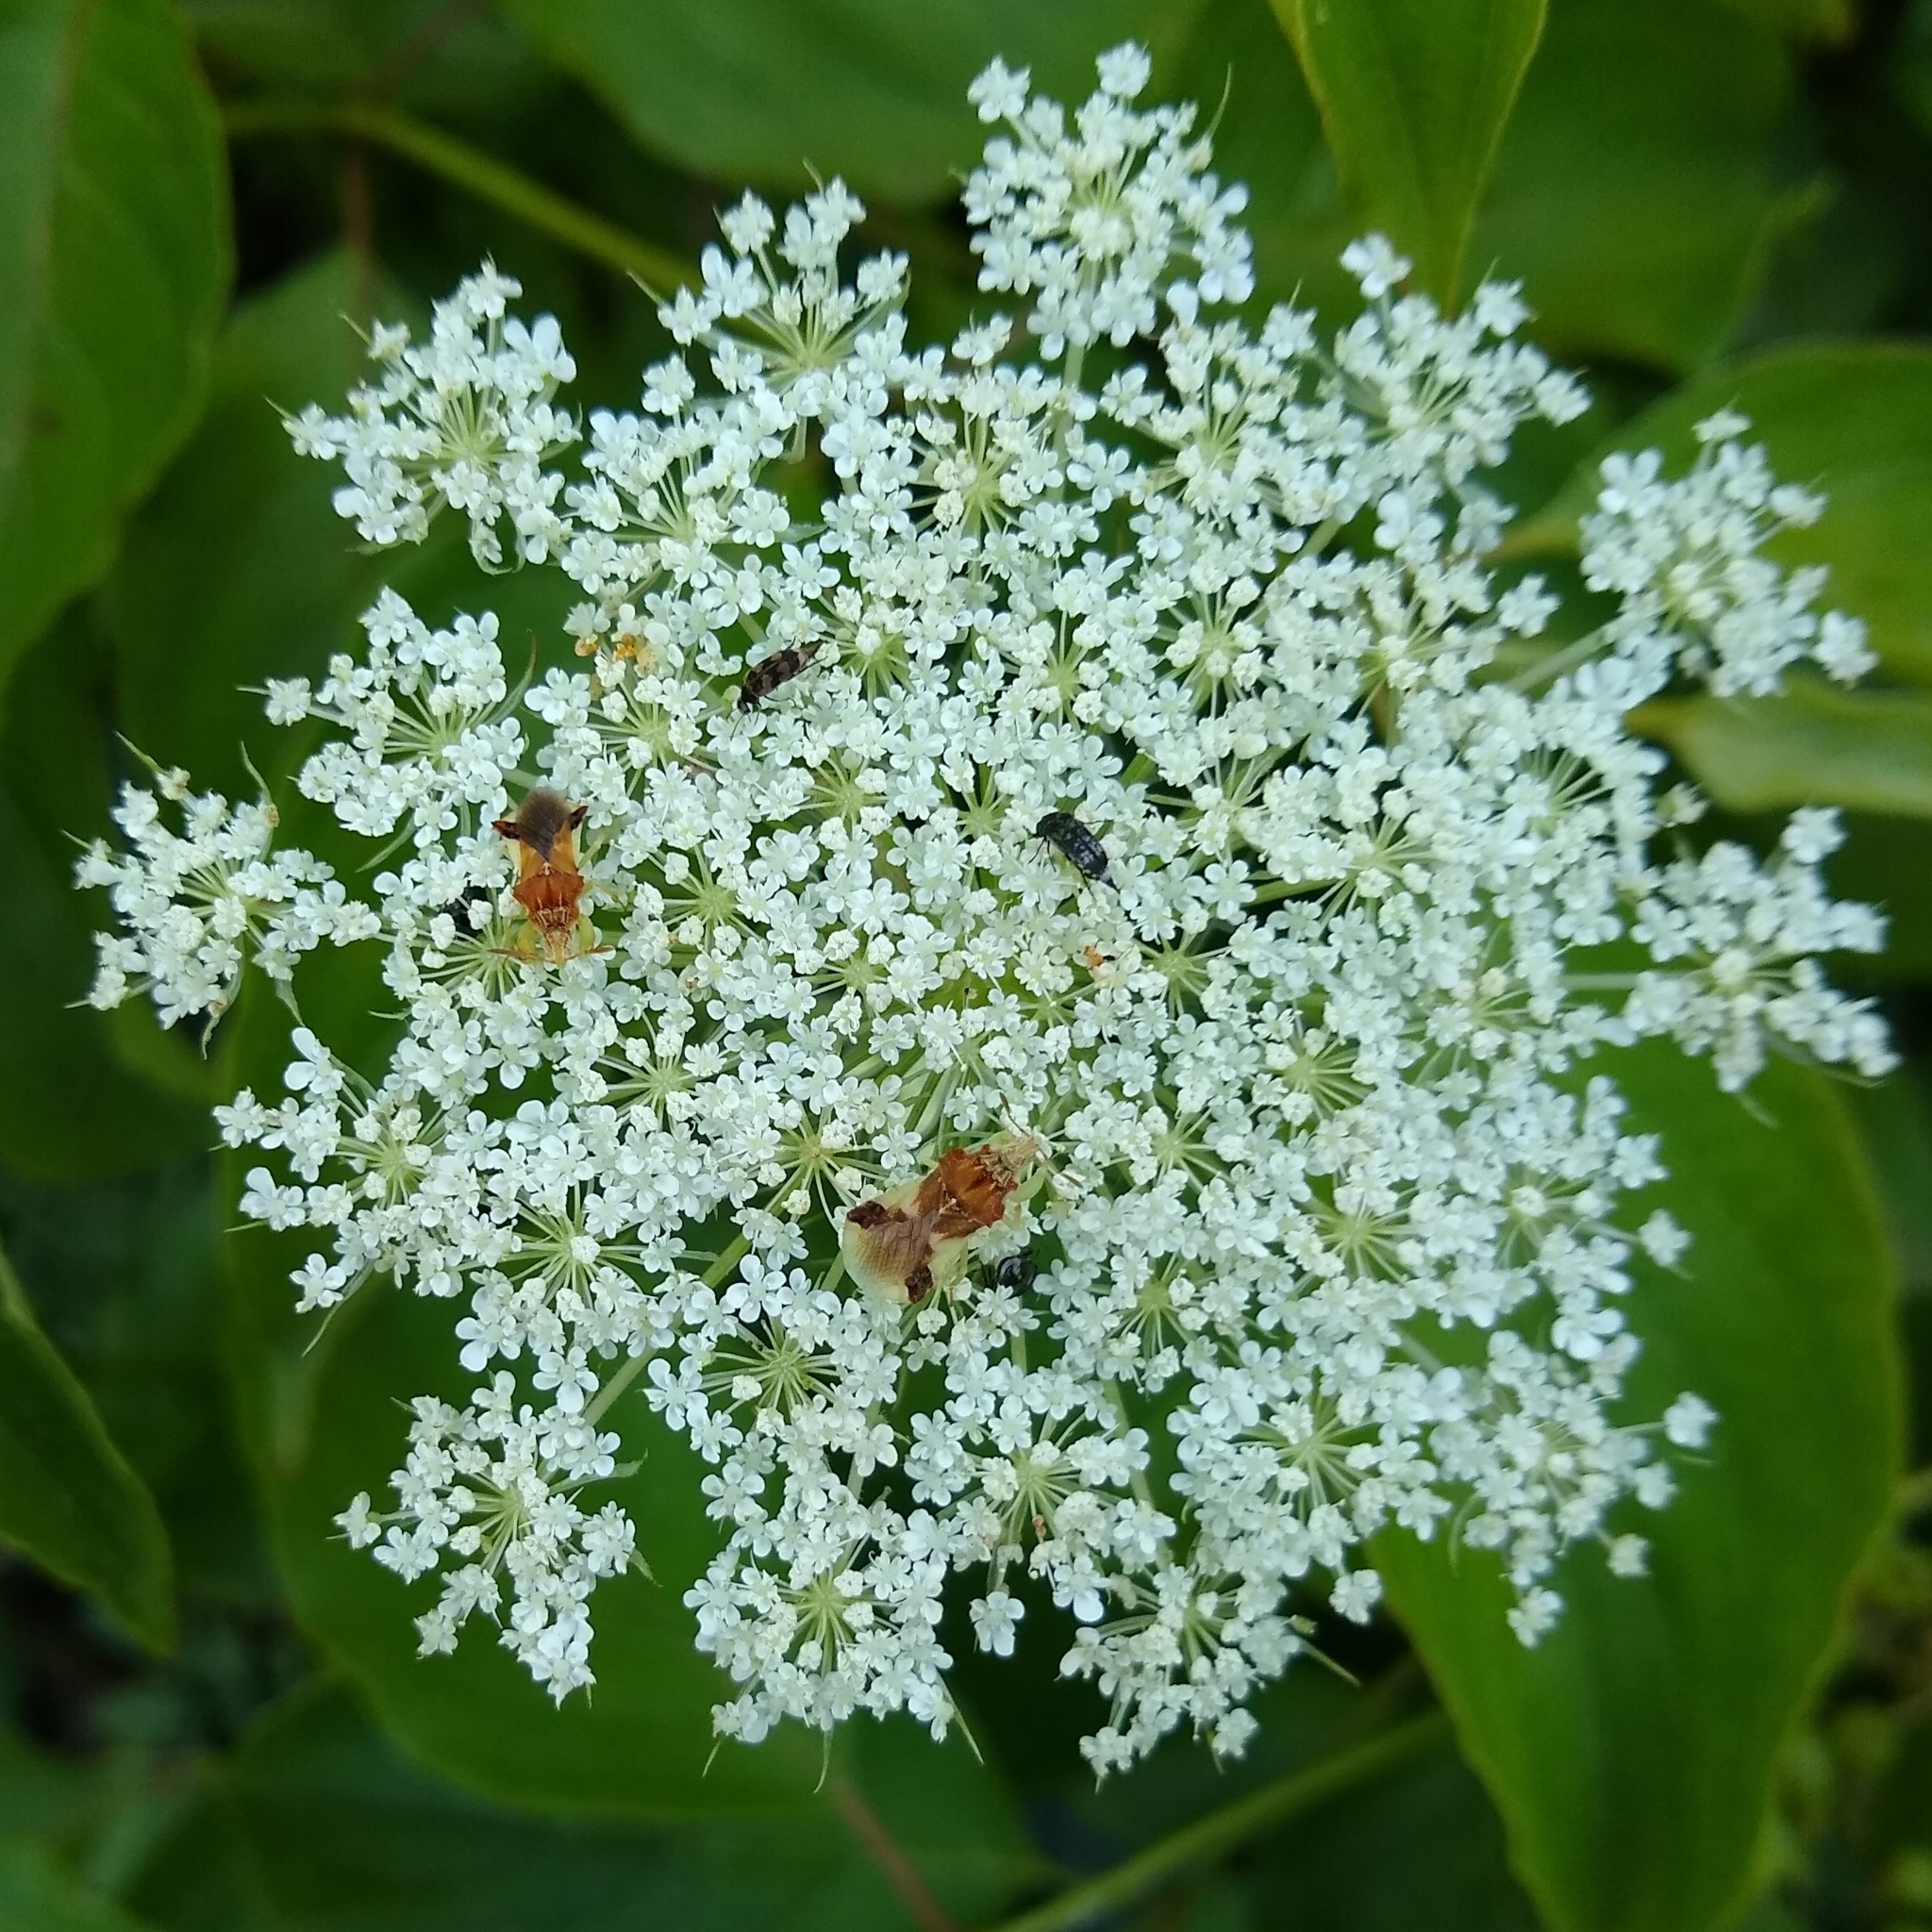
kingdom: Plantae
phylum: Tracheophyta
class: Magnoliopsida
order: Apiales
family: Apiaceae
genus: Daucus
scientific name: Daucus carota
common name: Wild carrot
